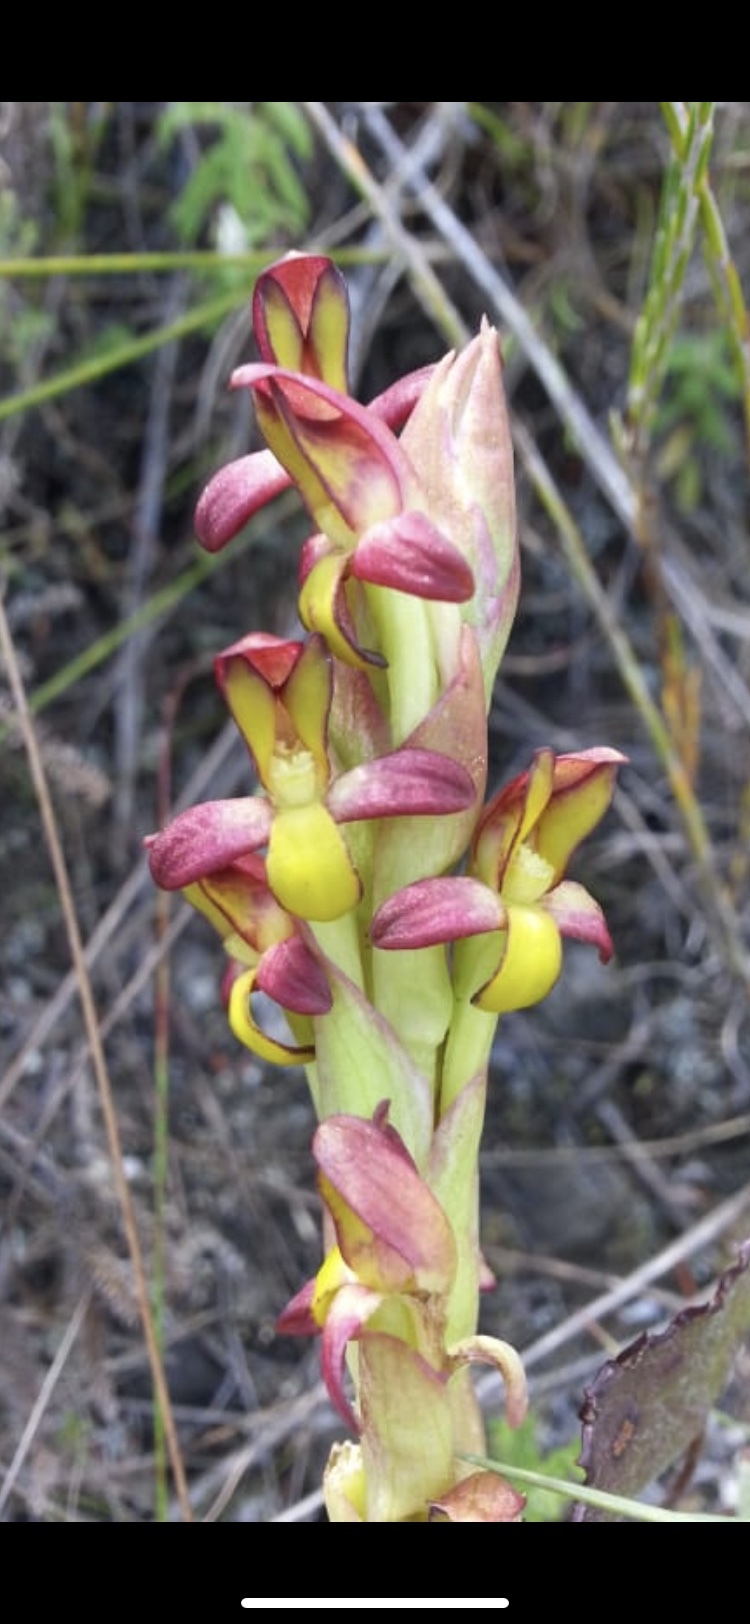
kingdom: Plantae
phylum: Tracheophyta
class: Liliopsida
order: Asparagales
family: Orchidaceae
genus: Disa
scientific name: Disa comosa
